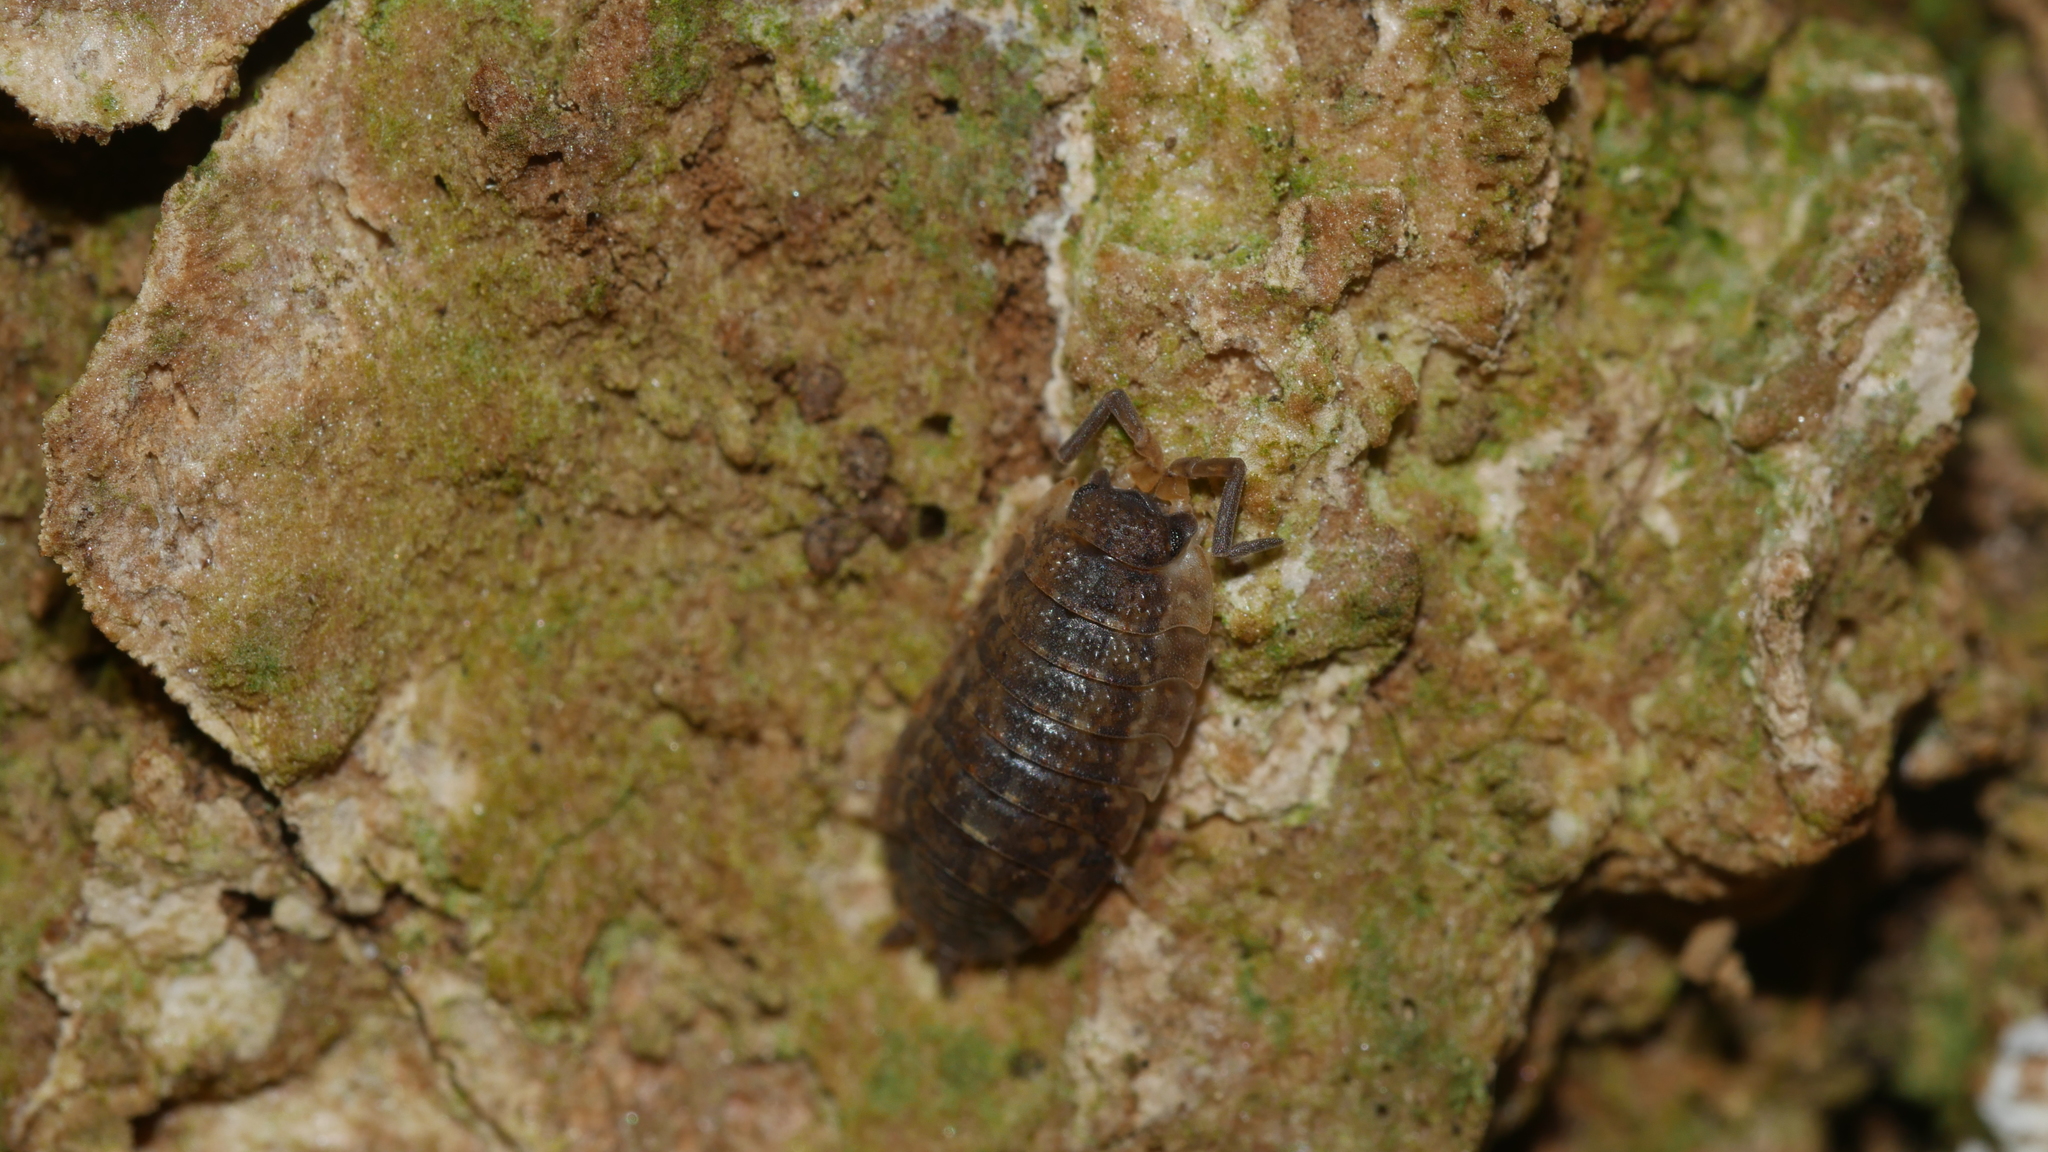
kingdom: Animalia
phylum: Arthropoda
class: Malacostraca
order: Isopoda
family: Porcellionidae
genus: Porcellio
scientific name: Porcellio scaber
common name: Common rough woodlouse
